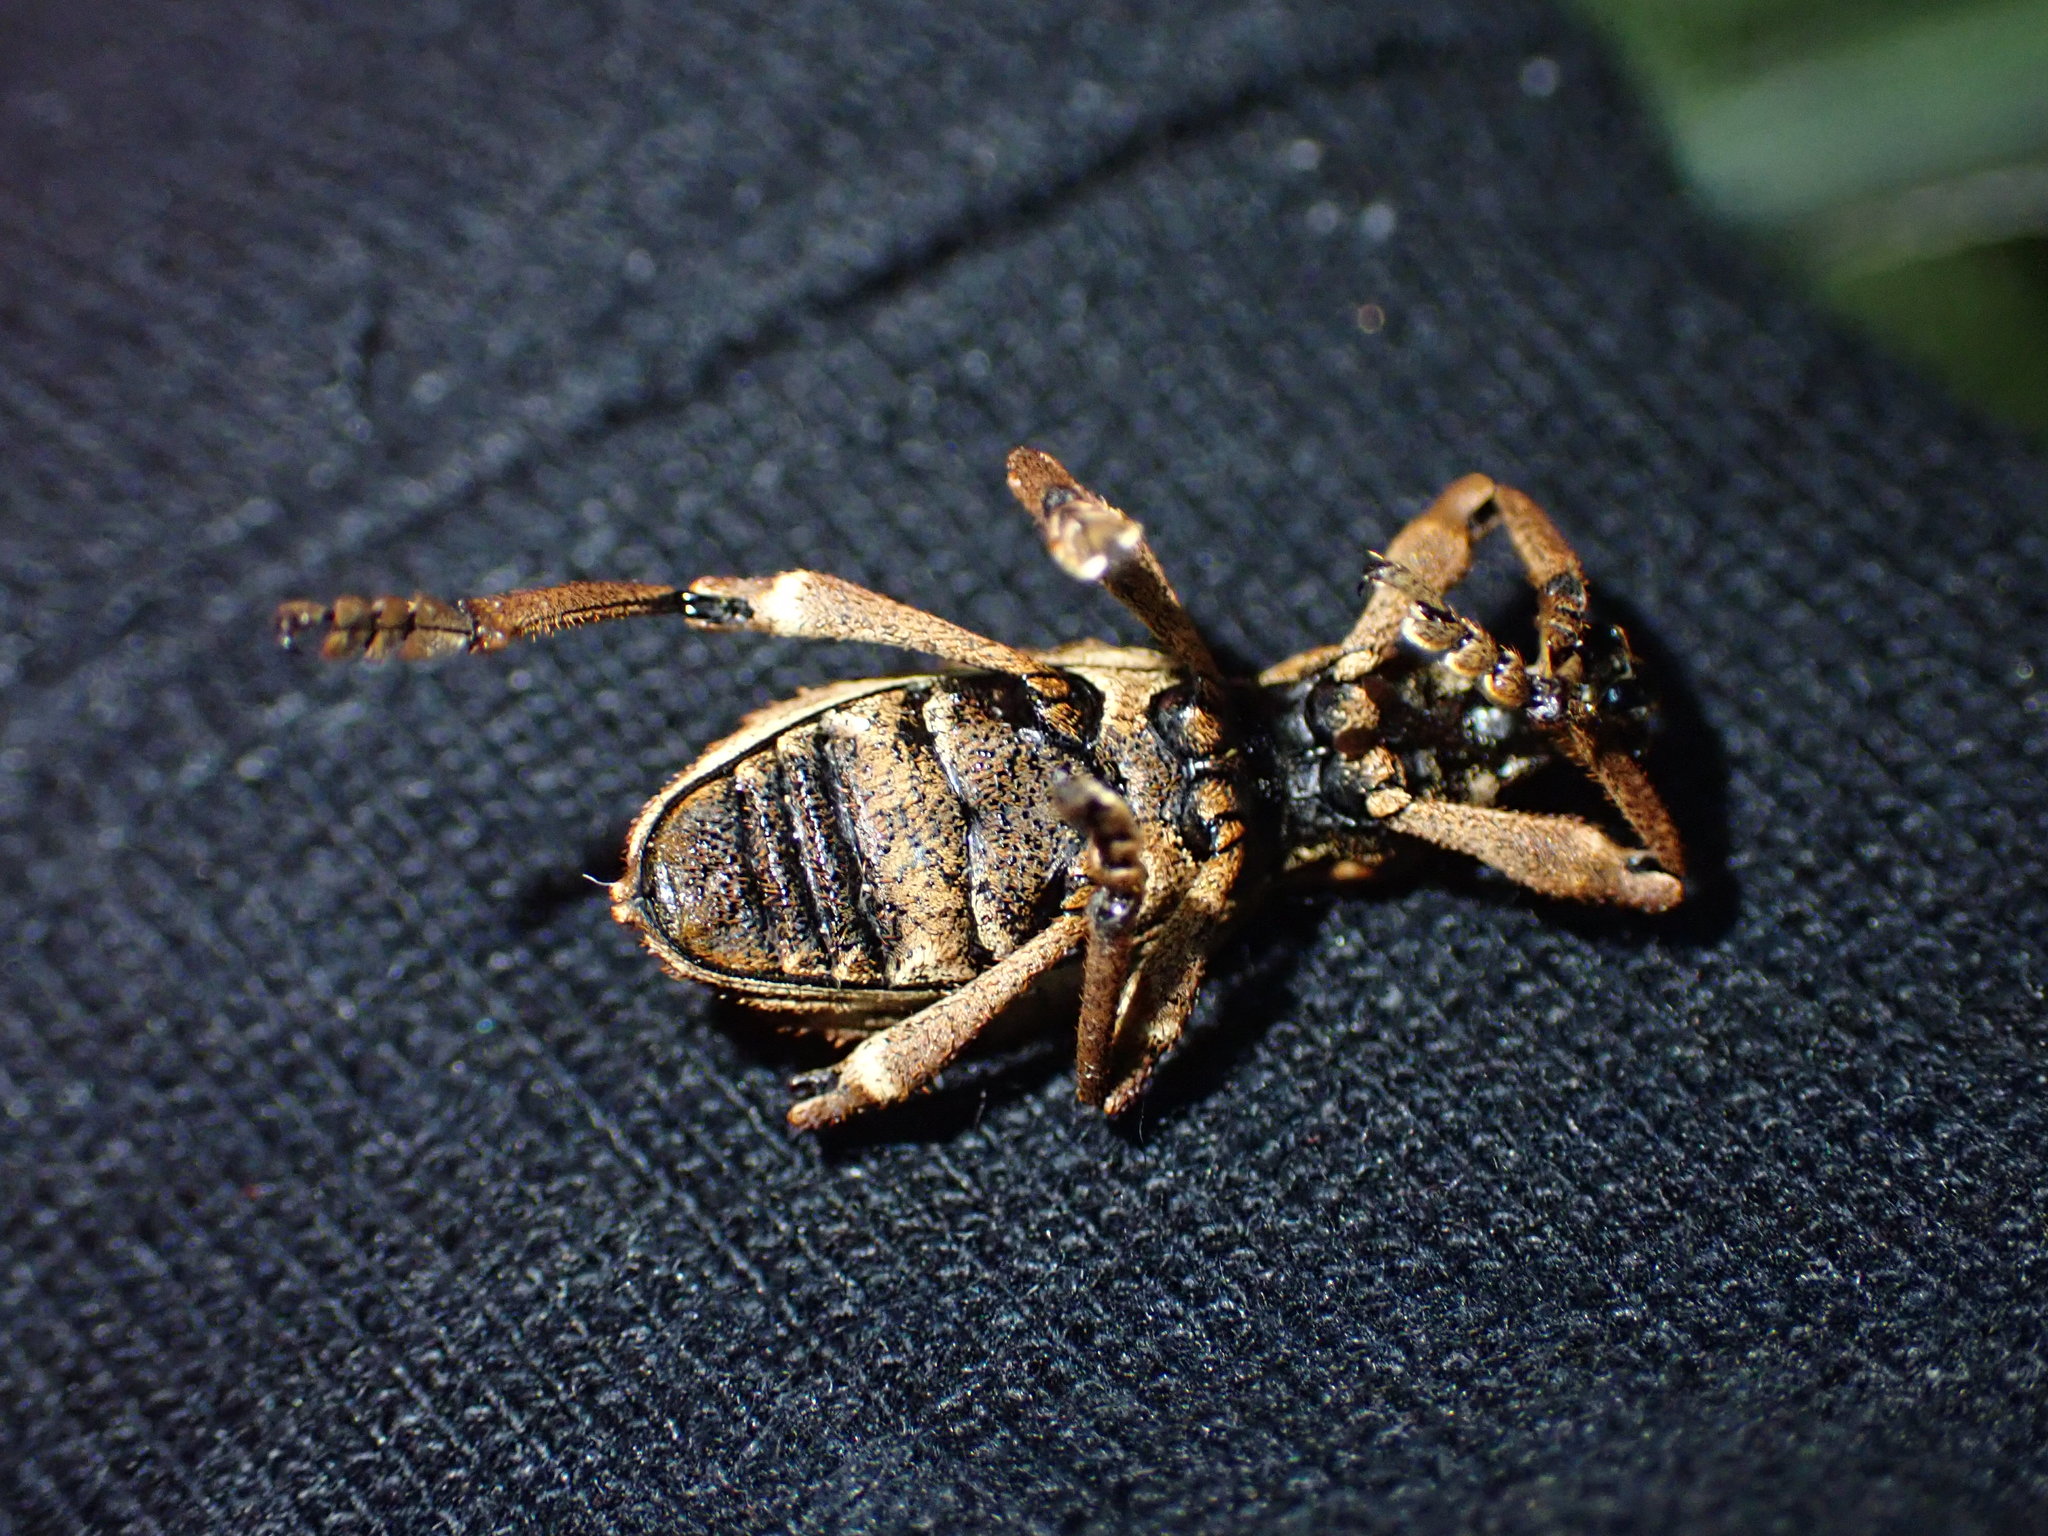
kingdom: Animalia
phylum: Arthropoda
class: Insecta
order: Coleoptera
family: Curculionidae
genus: Anagotus
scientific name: Anagotus
